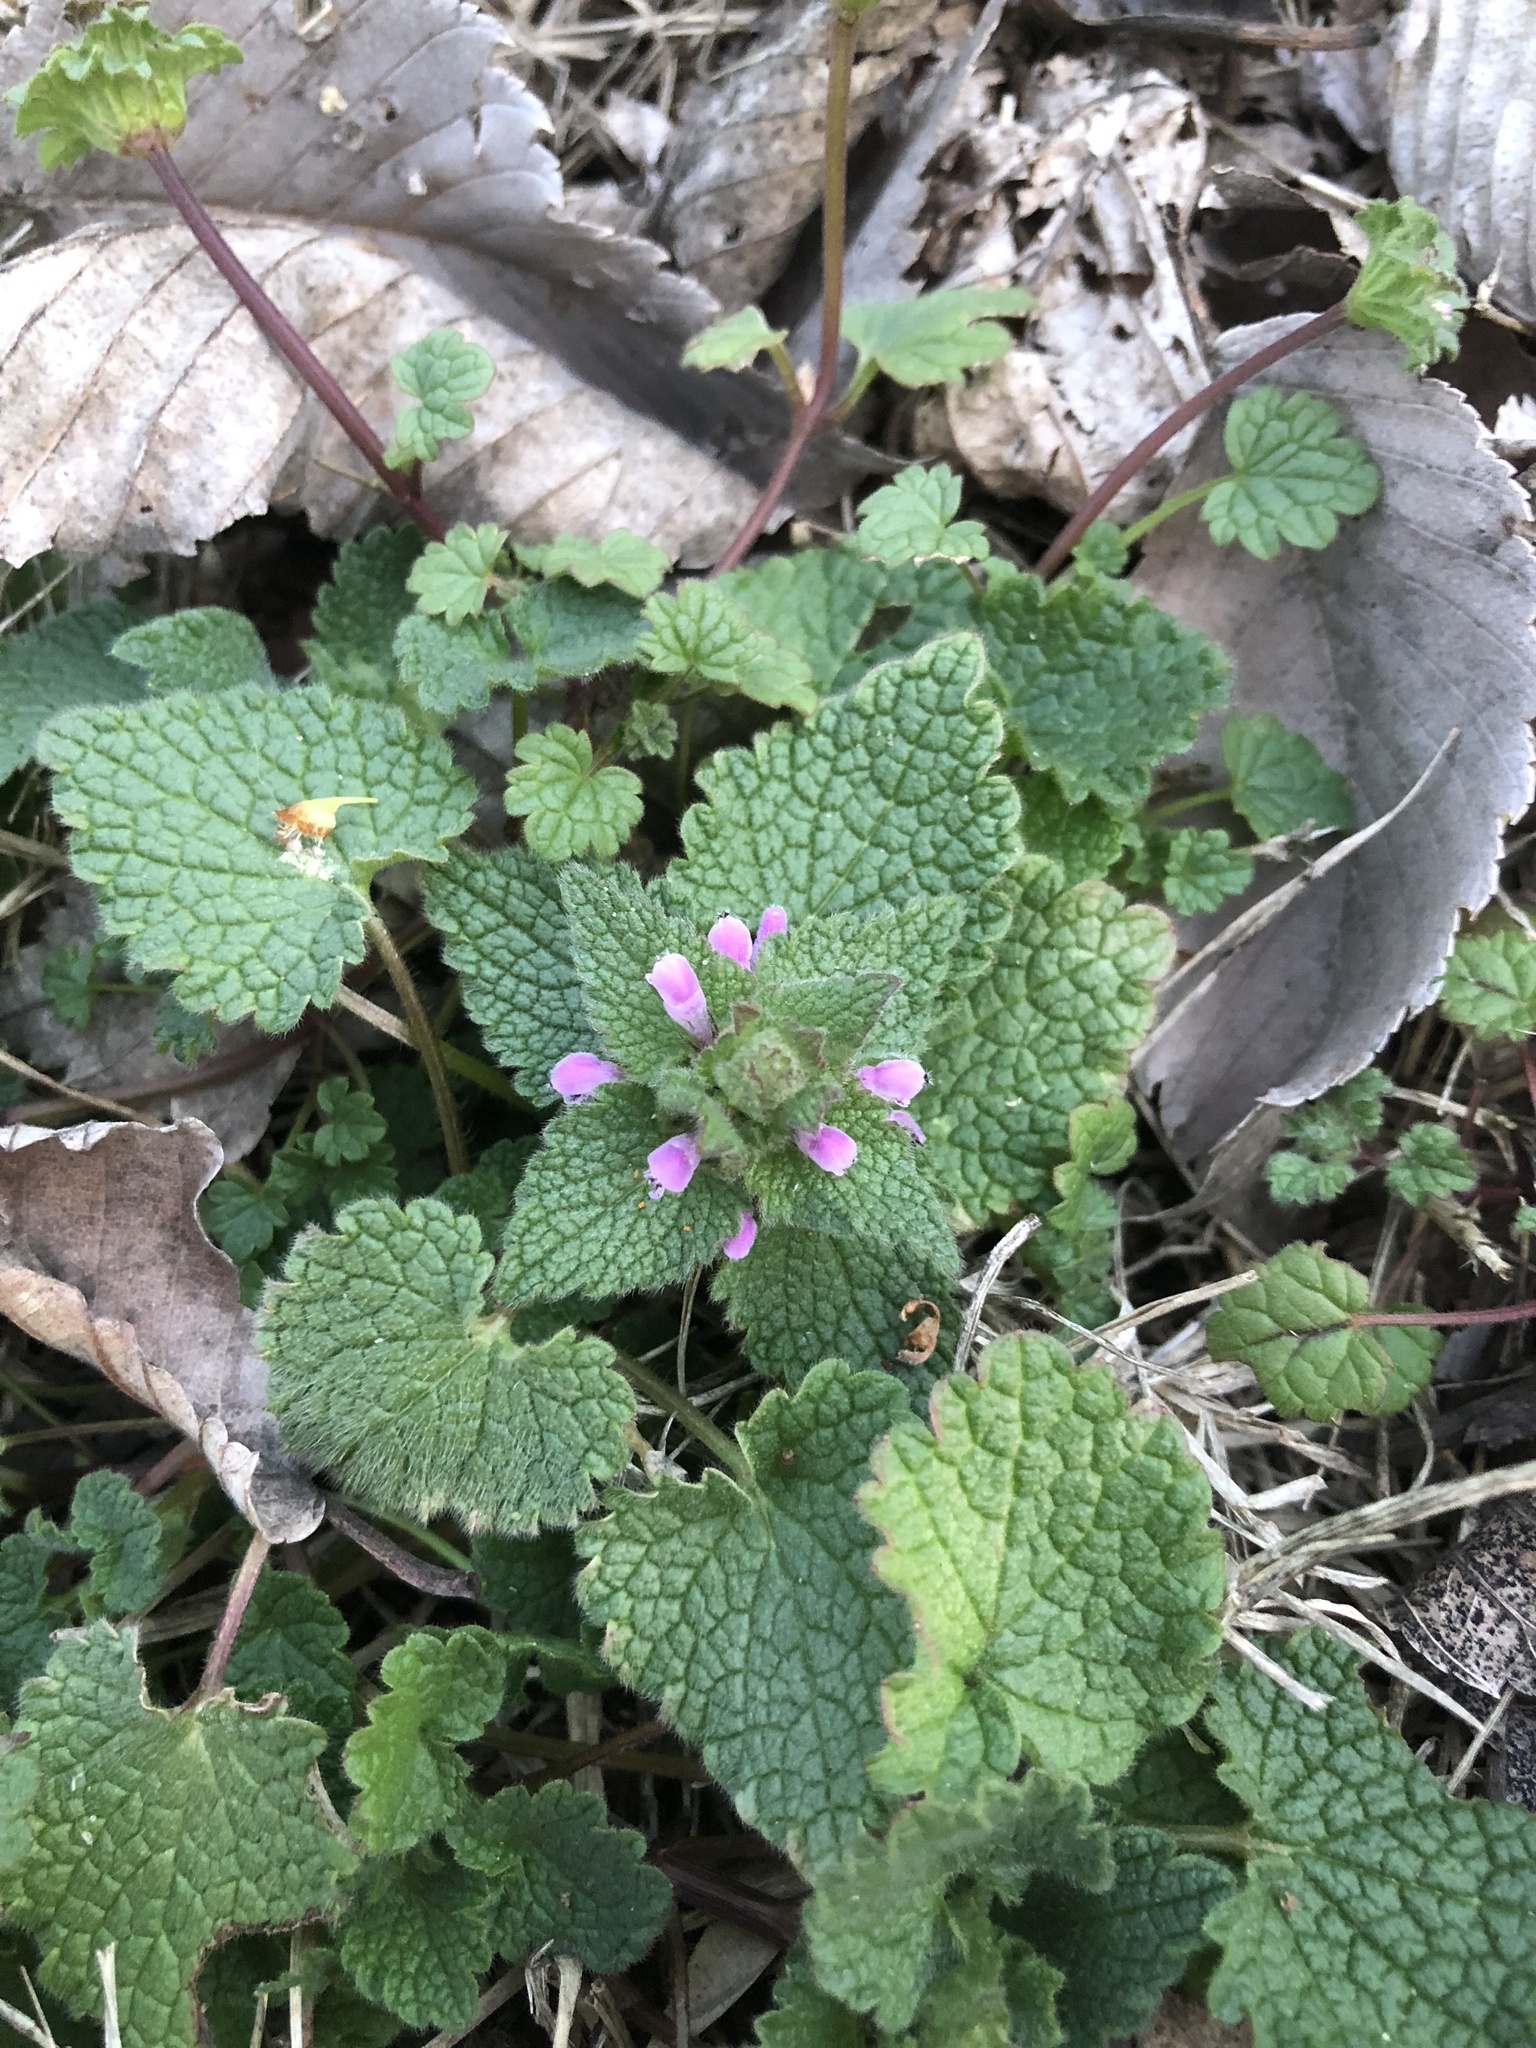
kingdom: Plantae
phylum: Tracheophyta
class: Magnoliopsida
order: Lamiales
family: Lamiaceae
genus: Lamium
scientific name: Lamium purpureum
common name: Red dead-nettle
